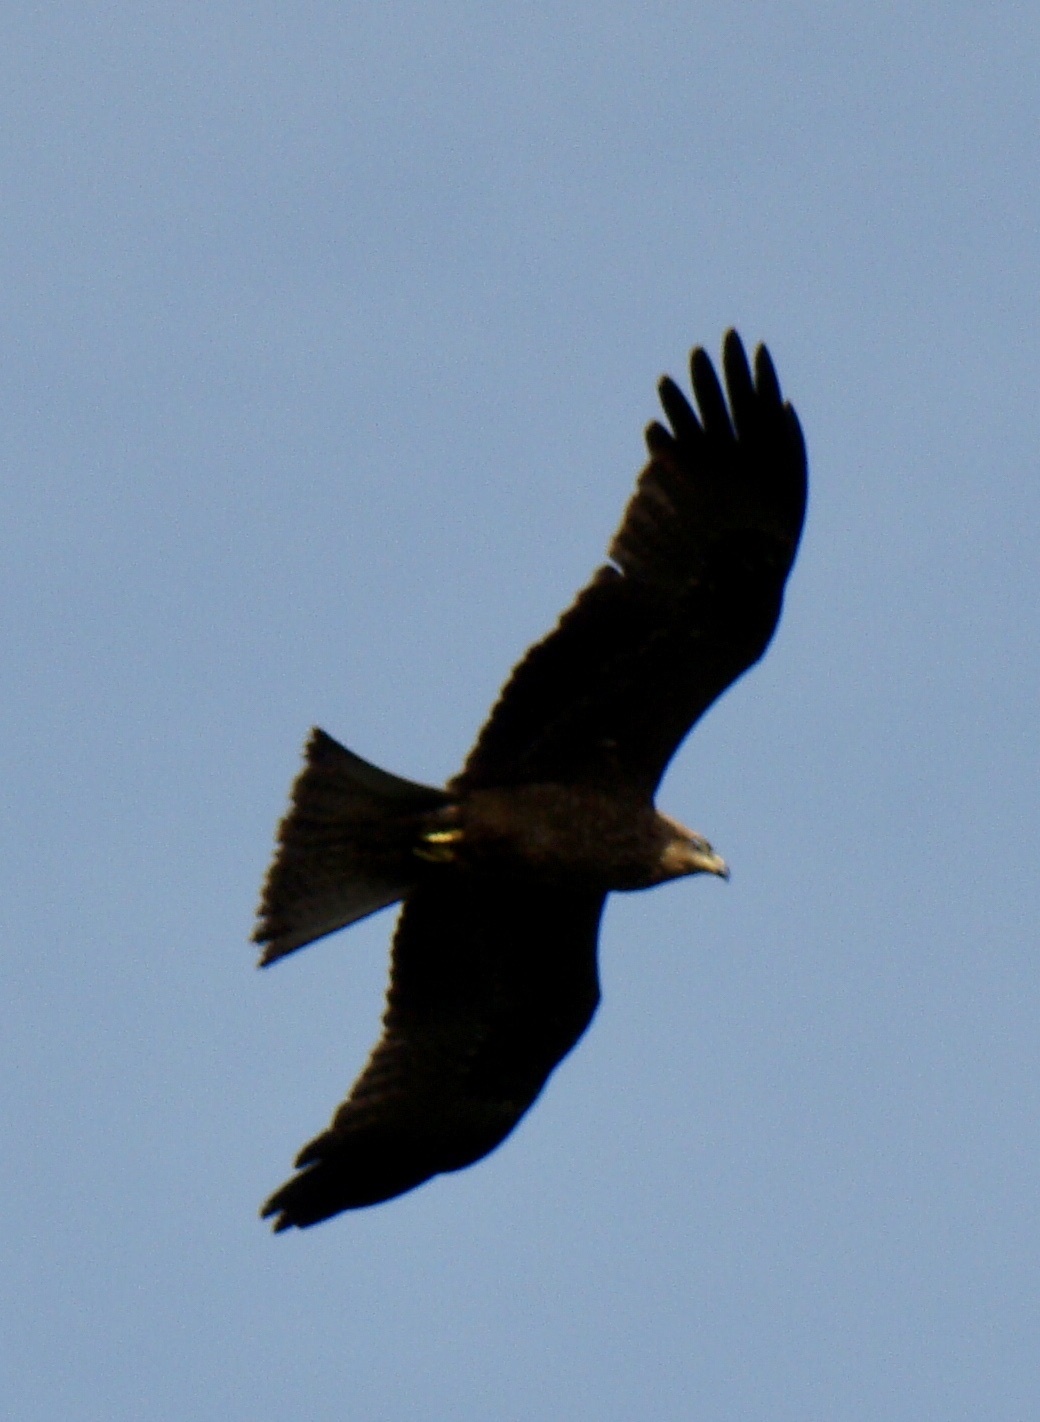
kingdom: Animalia
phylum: Chordata
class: Aves
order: Accipitriformes
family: Accipitridae
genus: Milvus
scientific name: Milvus migrans
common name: Black kite
